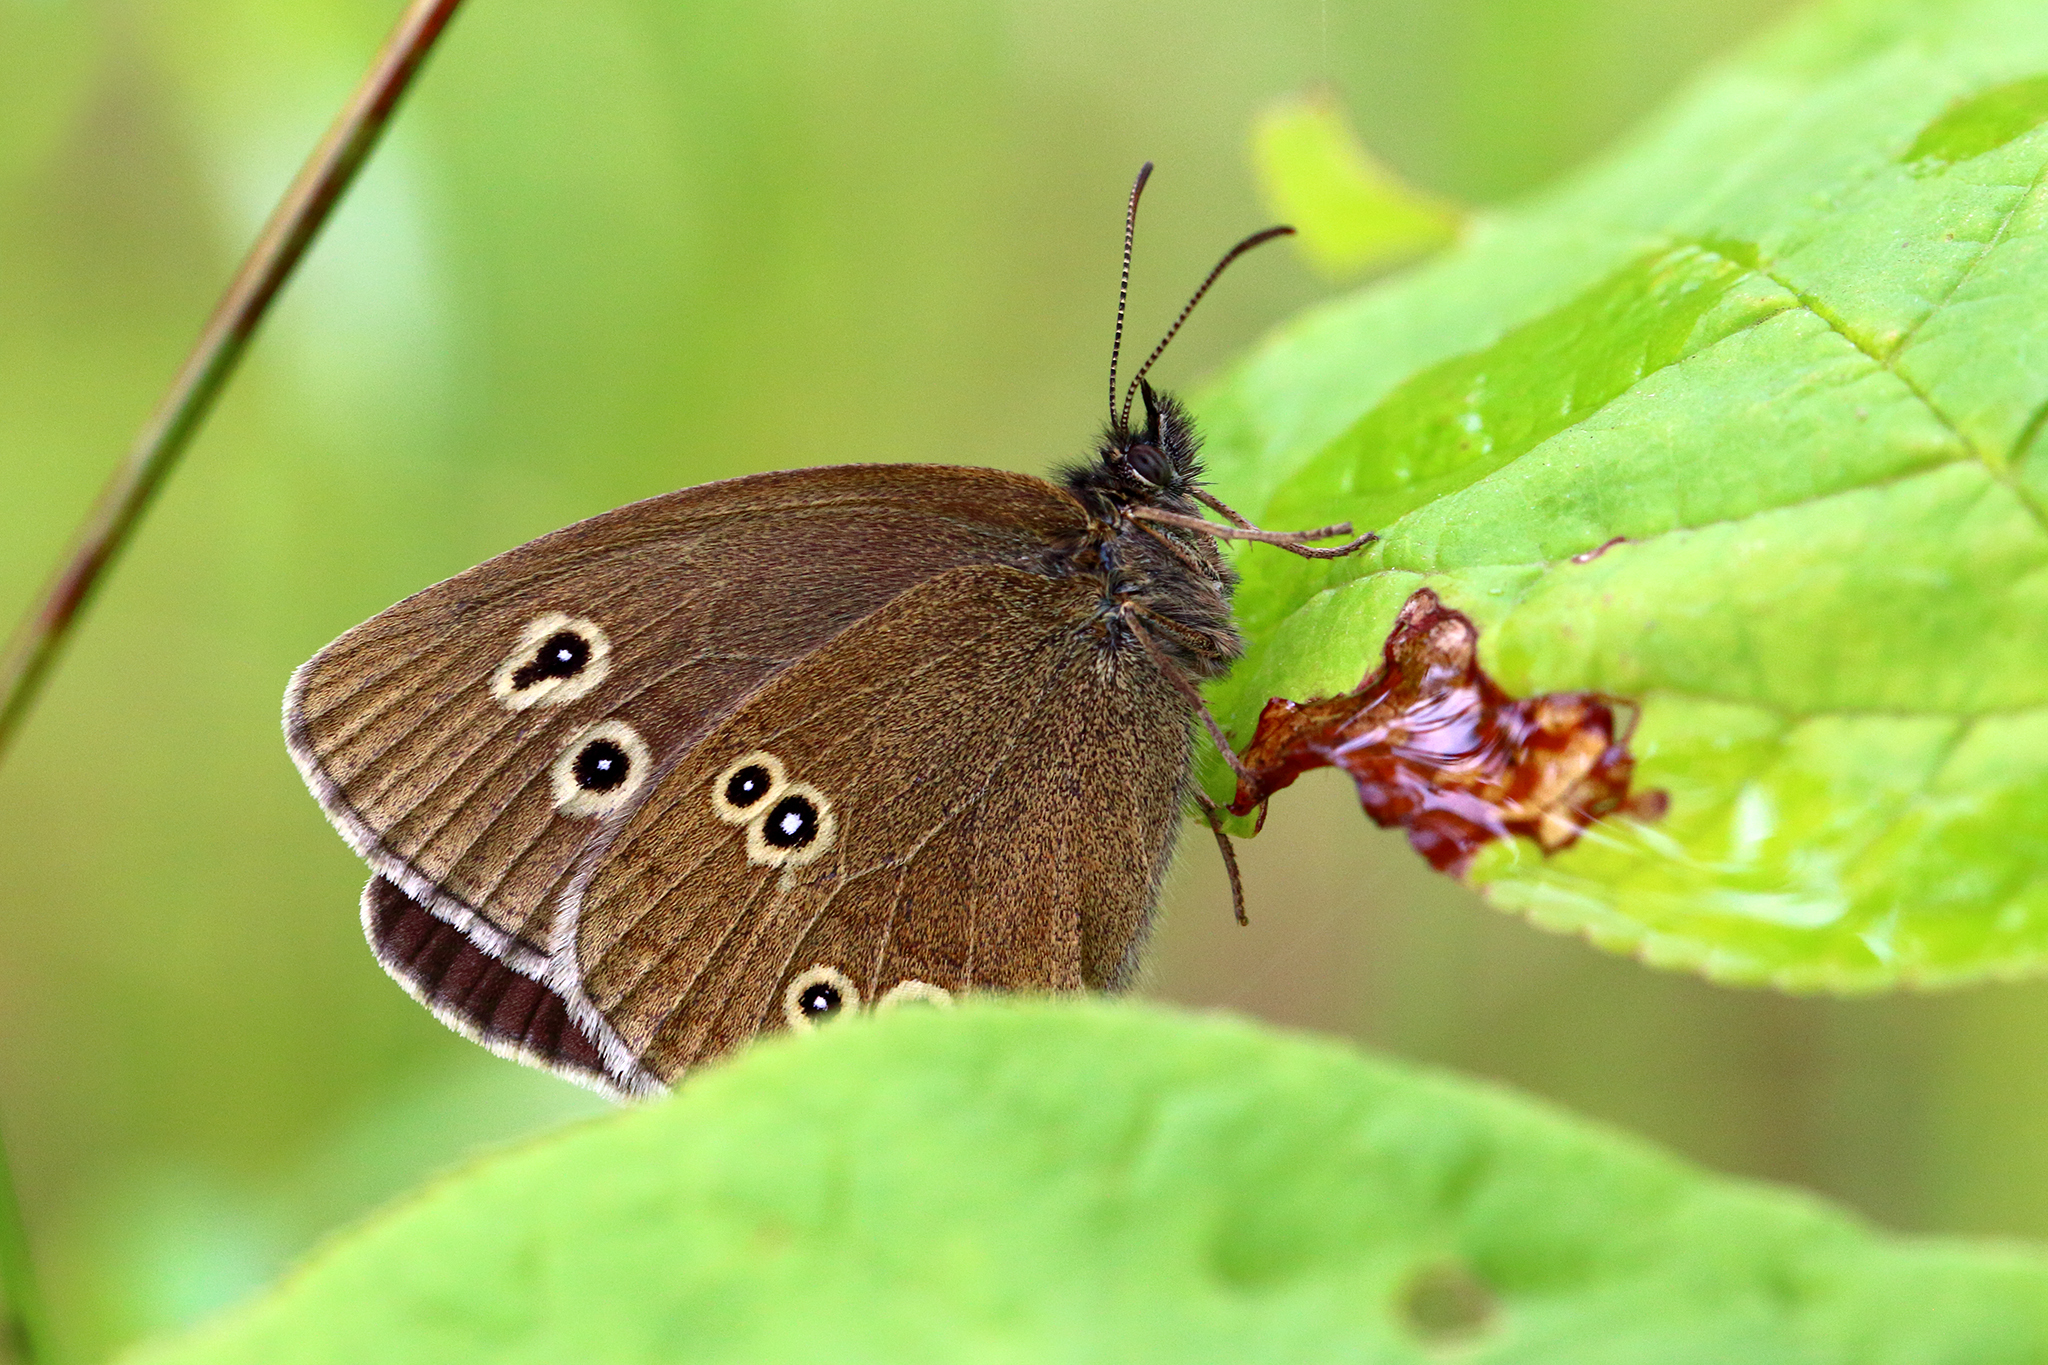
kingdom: Animalia
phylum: Arthropoda
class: Insecta
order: Lepidoptera
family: Nymphalidae
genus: Aphantopus
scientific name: Aphantopus hyperantus
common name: Ringlet
